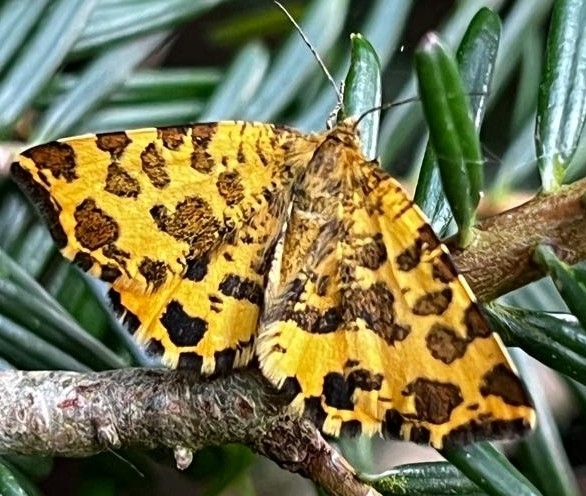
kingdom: Animalia
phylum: Arthropoda
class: Insecta
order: Lepidoptera
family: Geometridae
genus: Pseudopanthera
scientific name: Pseudopanthera macularia
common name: Speckled yellow
